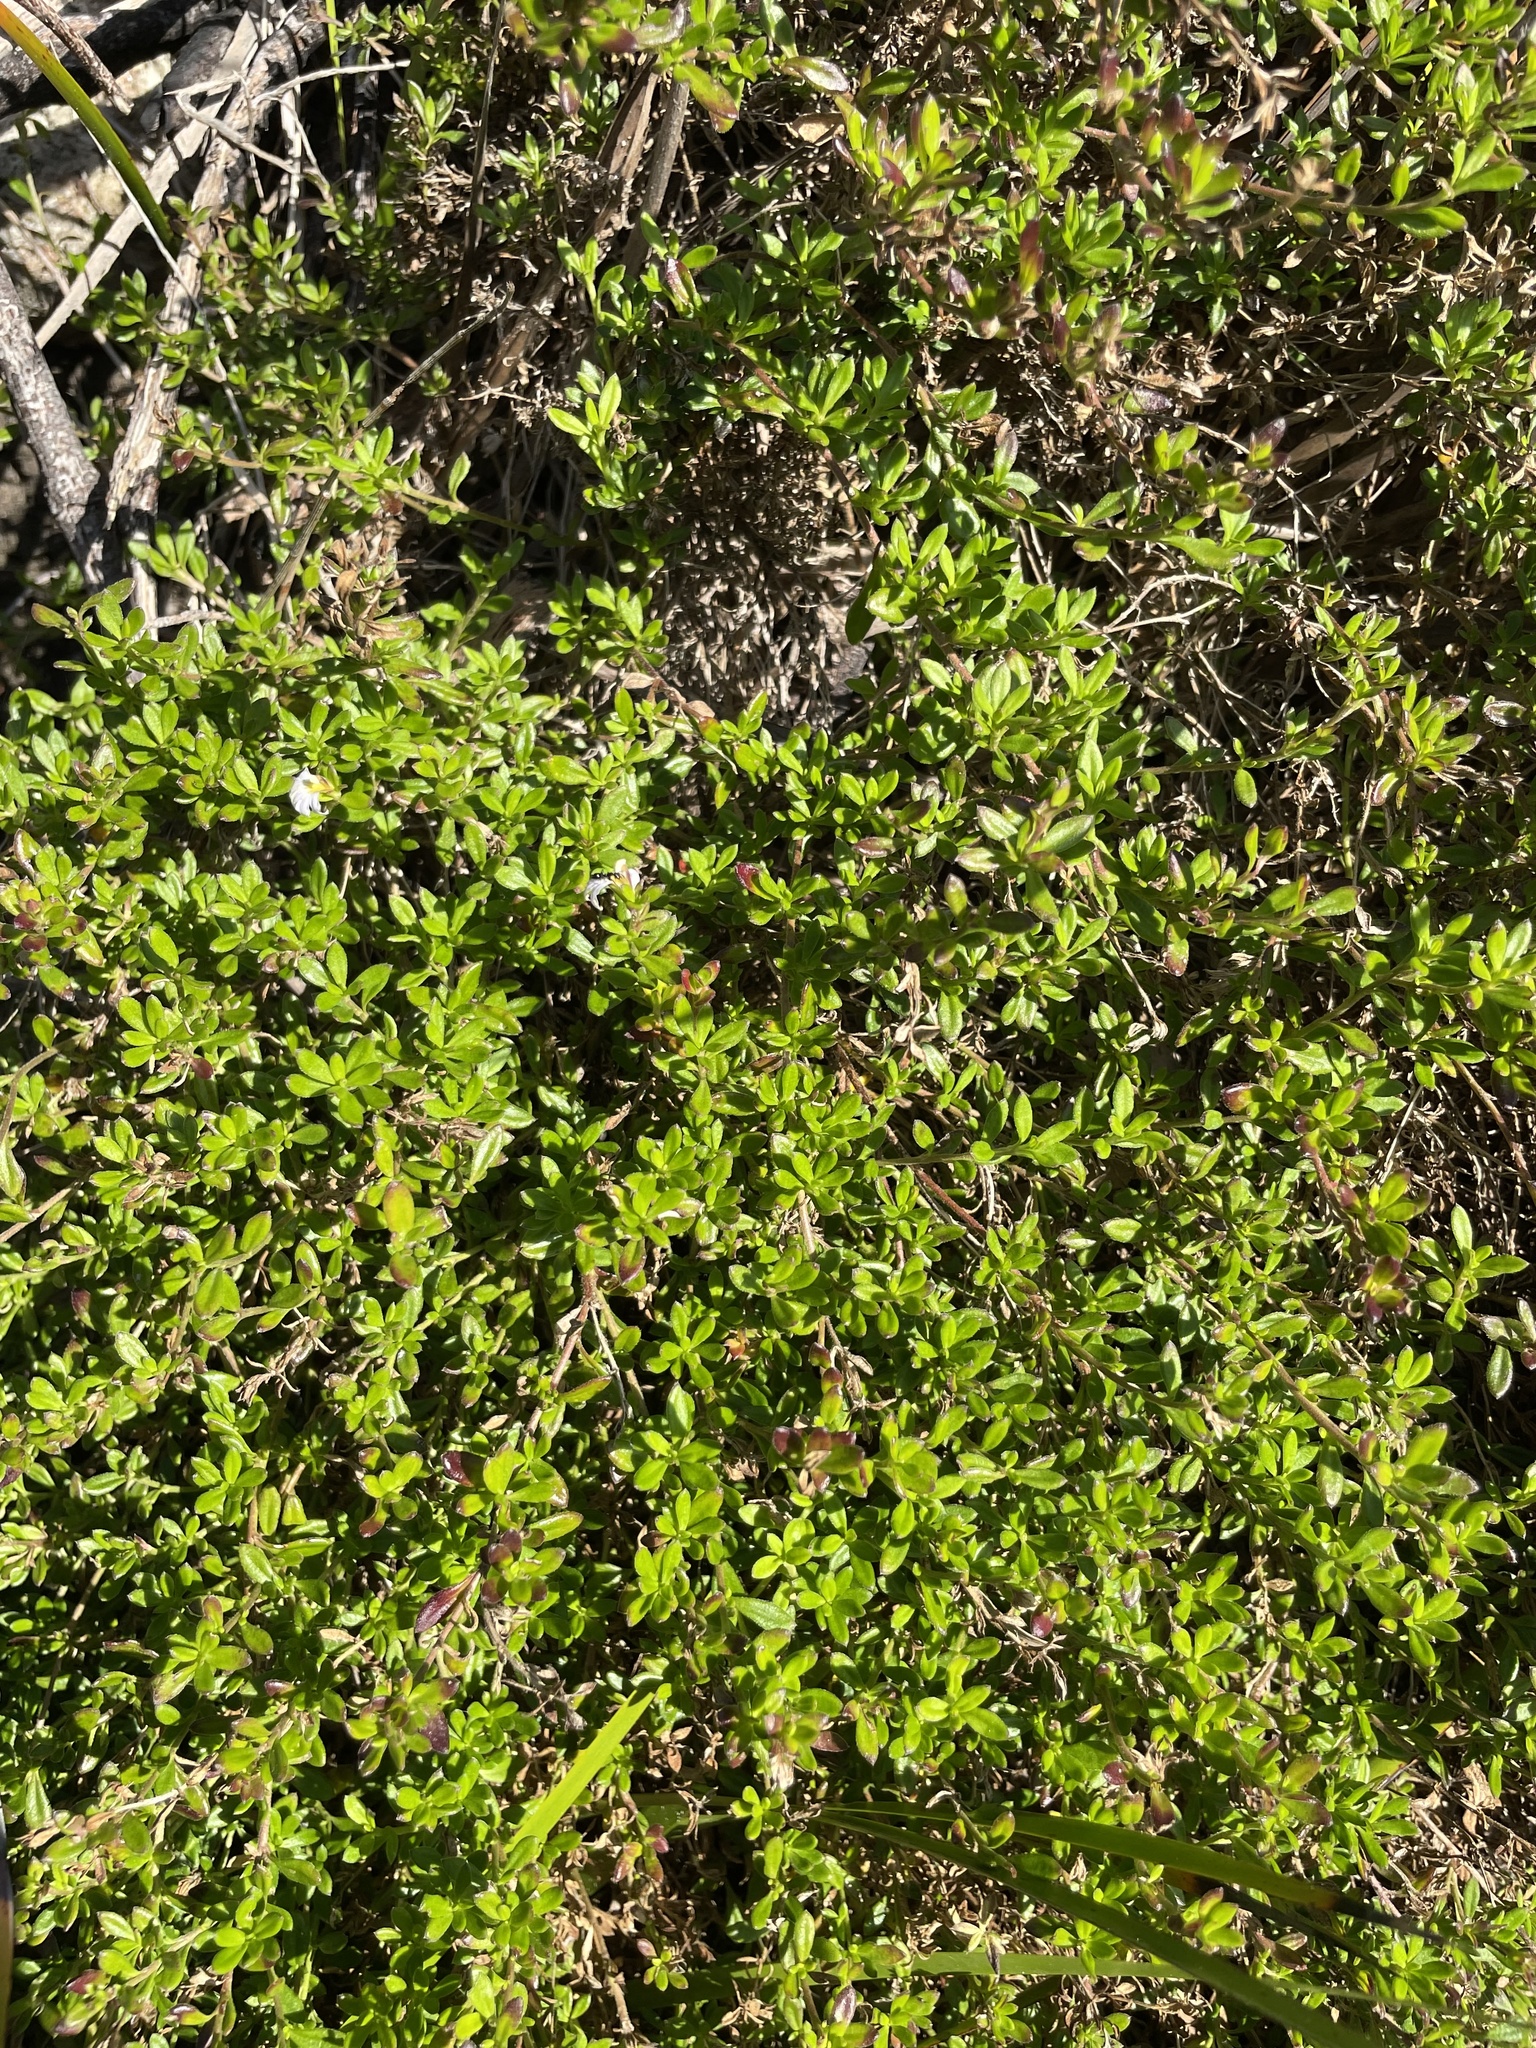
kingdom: Plantae
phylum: Tracheophyta
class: Magnoliopsida
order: Asterales
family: Goodeniaceae
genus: Scaevola
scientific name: Scaevola calendulacea
